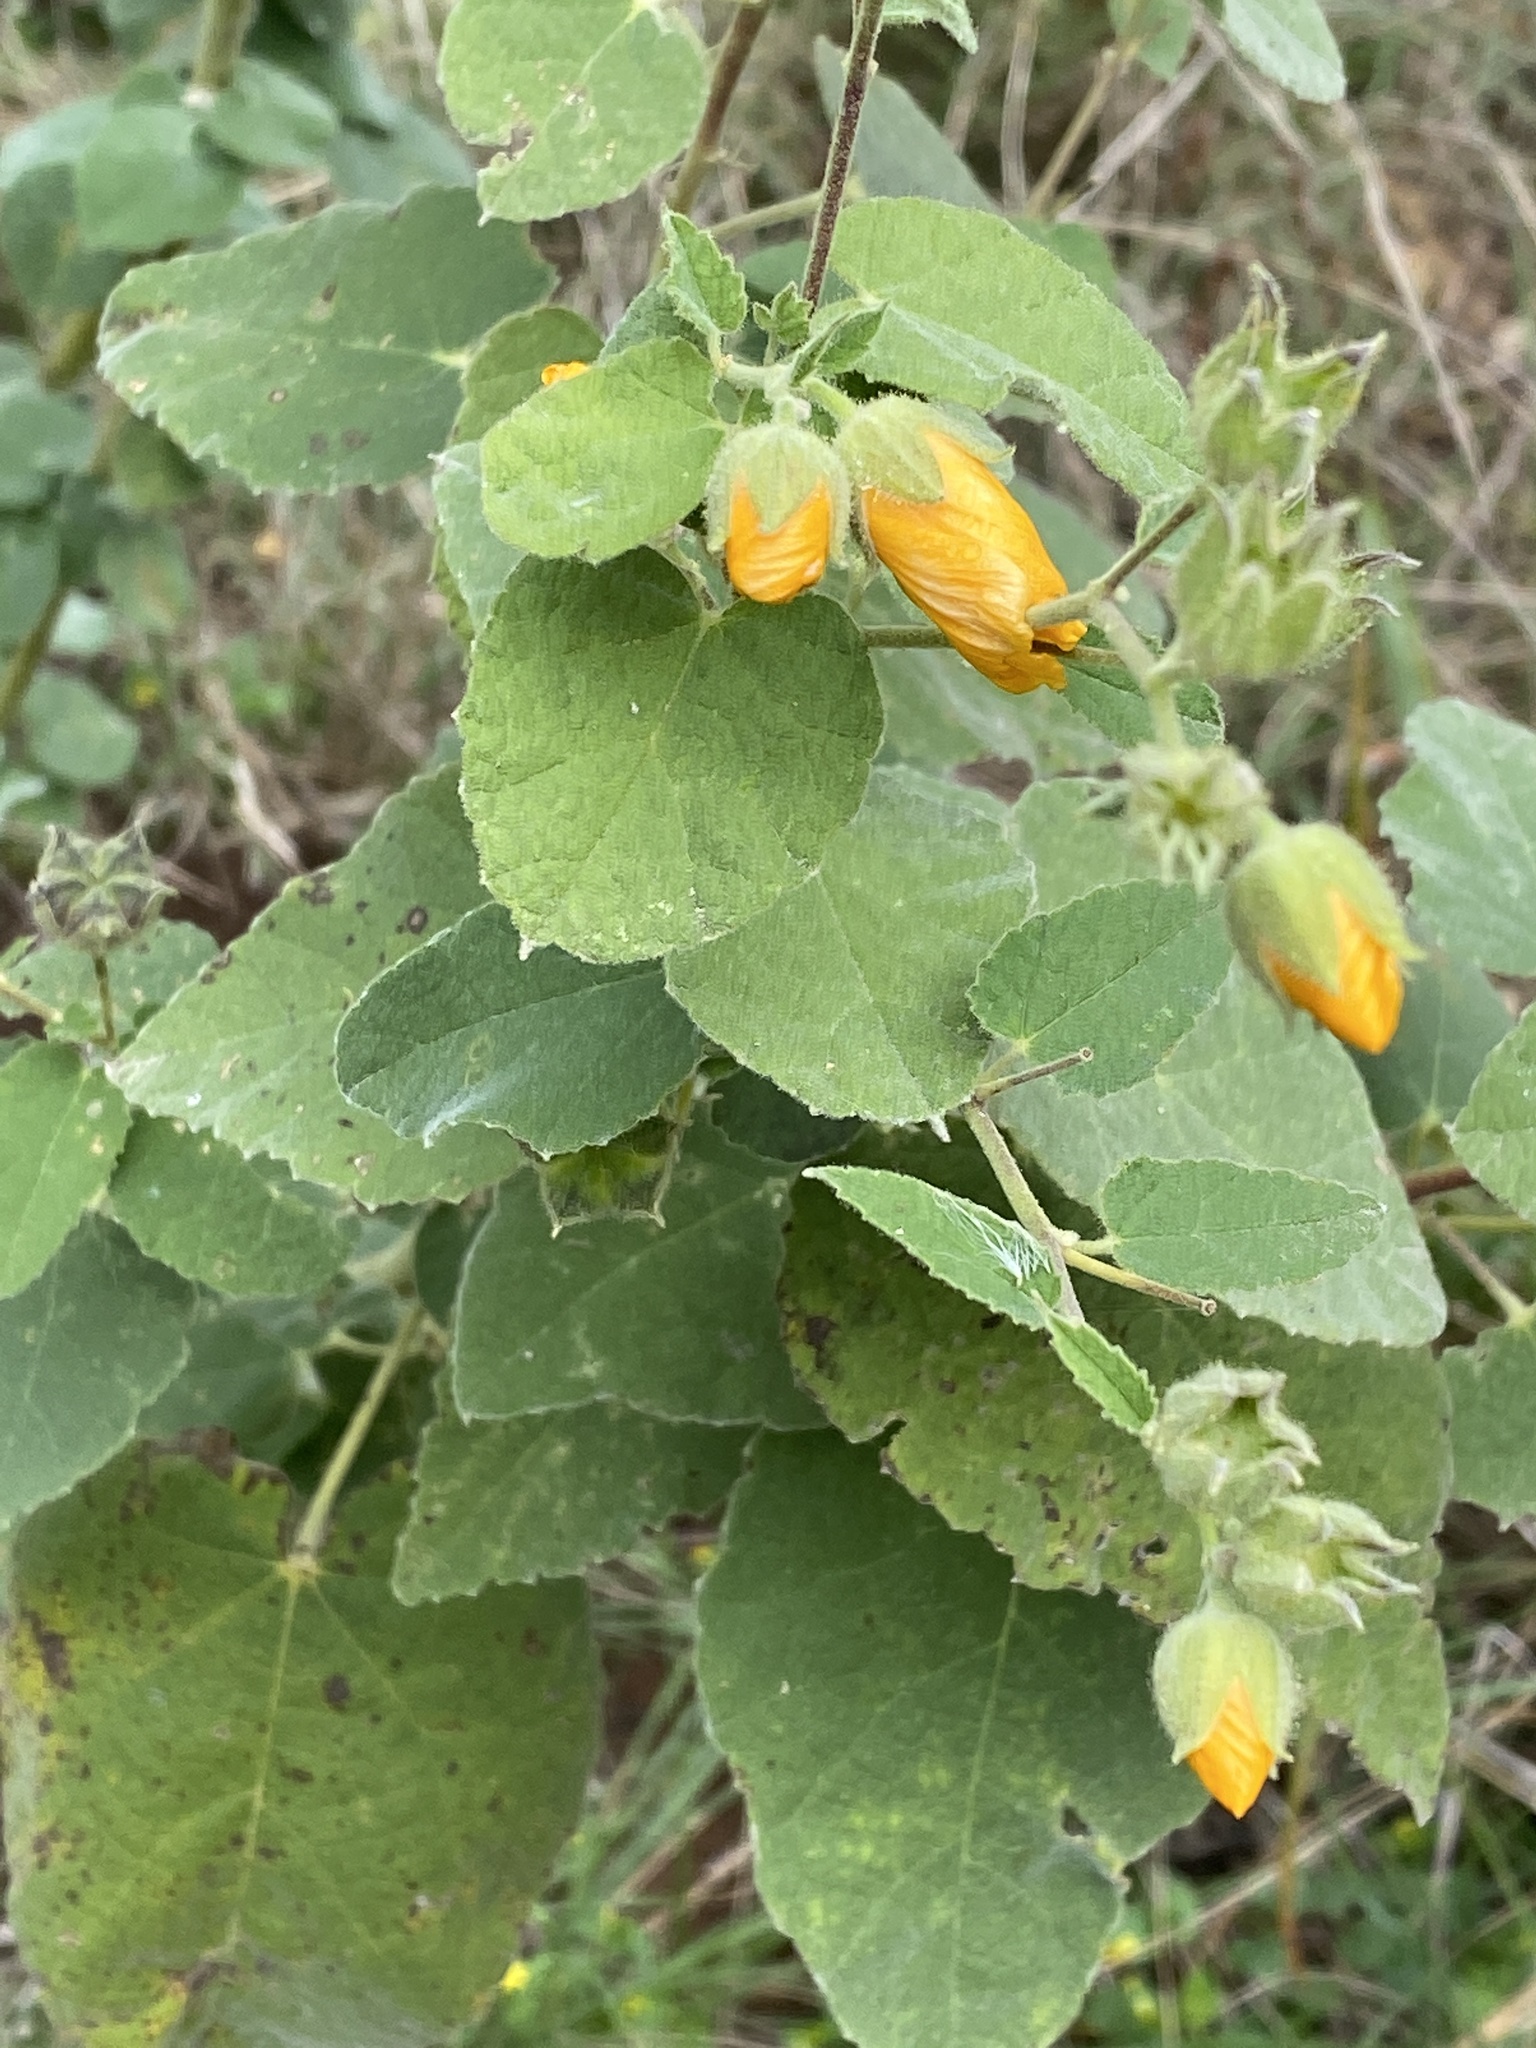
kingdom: Plantae
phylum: Tracheophyta
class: Magnoliopsida
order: Malvales
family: Malvaceae
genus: Allowissadula
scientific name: Allowissadula holosericea
